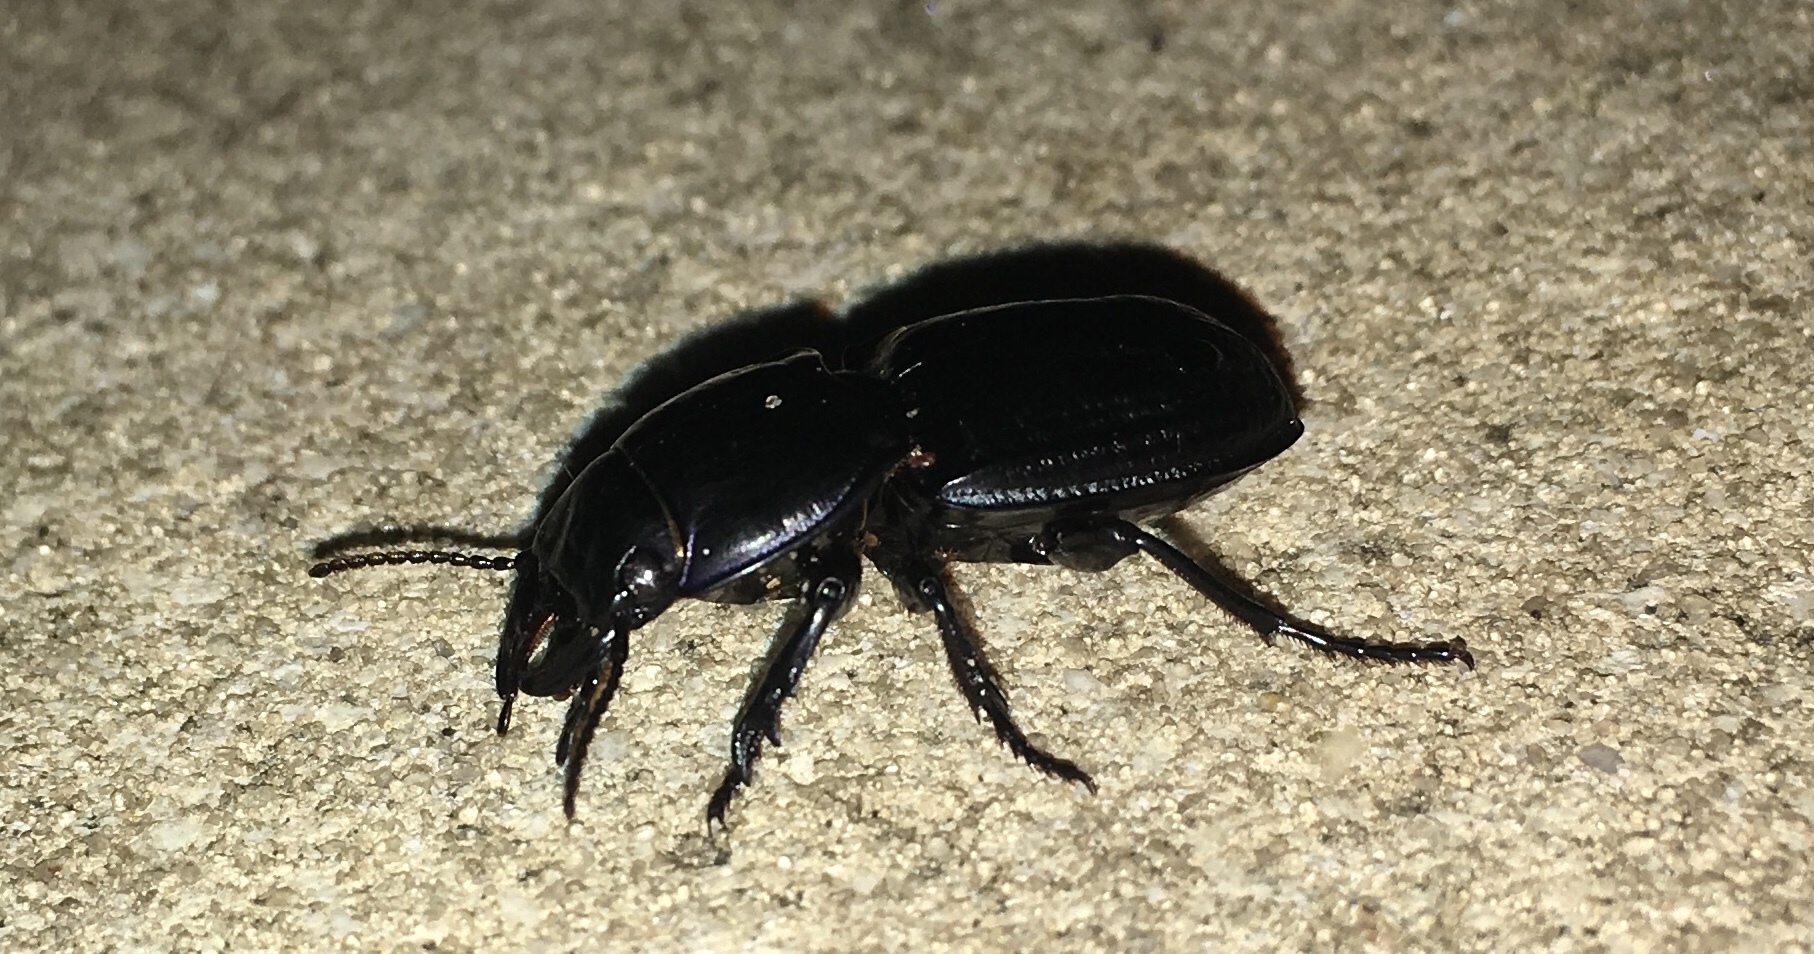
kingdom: Animalia
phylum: Arthropoda
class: Insecta
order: Coleoptera
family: Carabidae
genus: Pasimachus
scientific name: Pasimachus sublaevis
